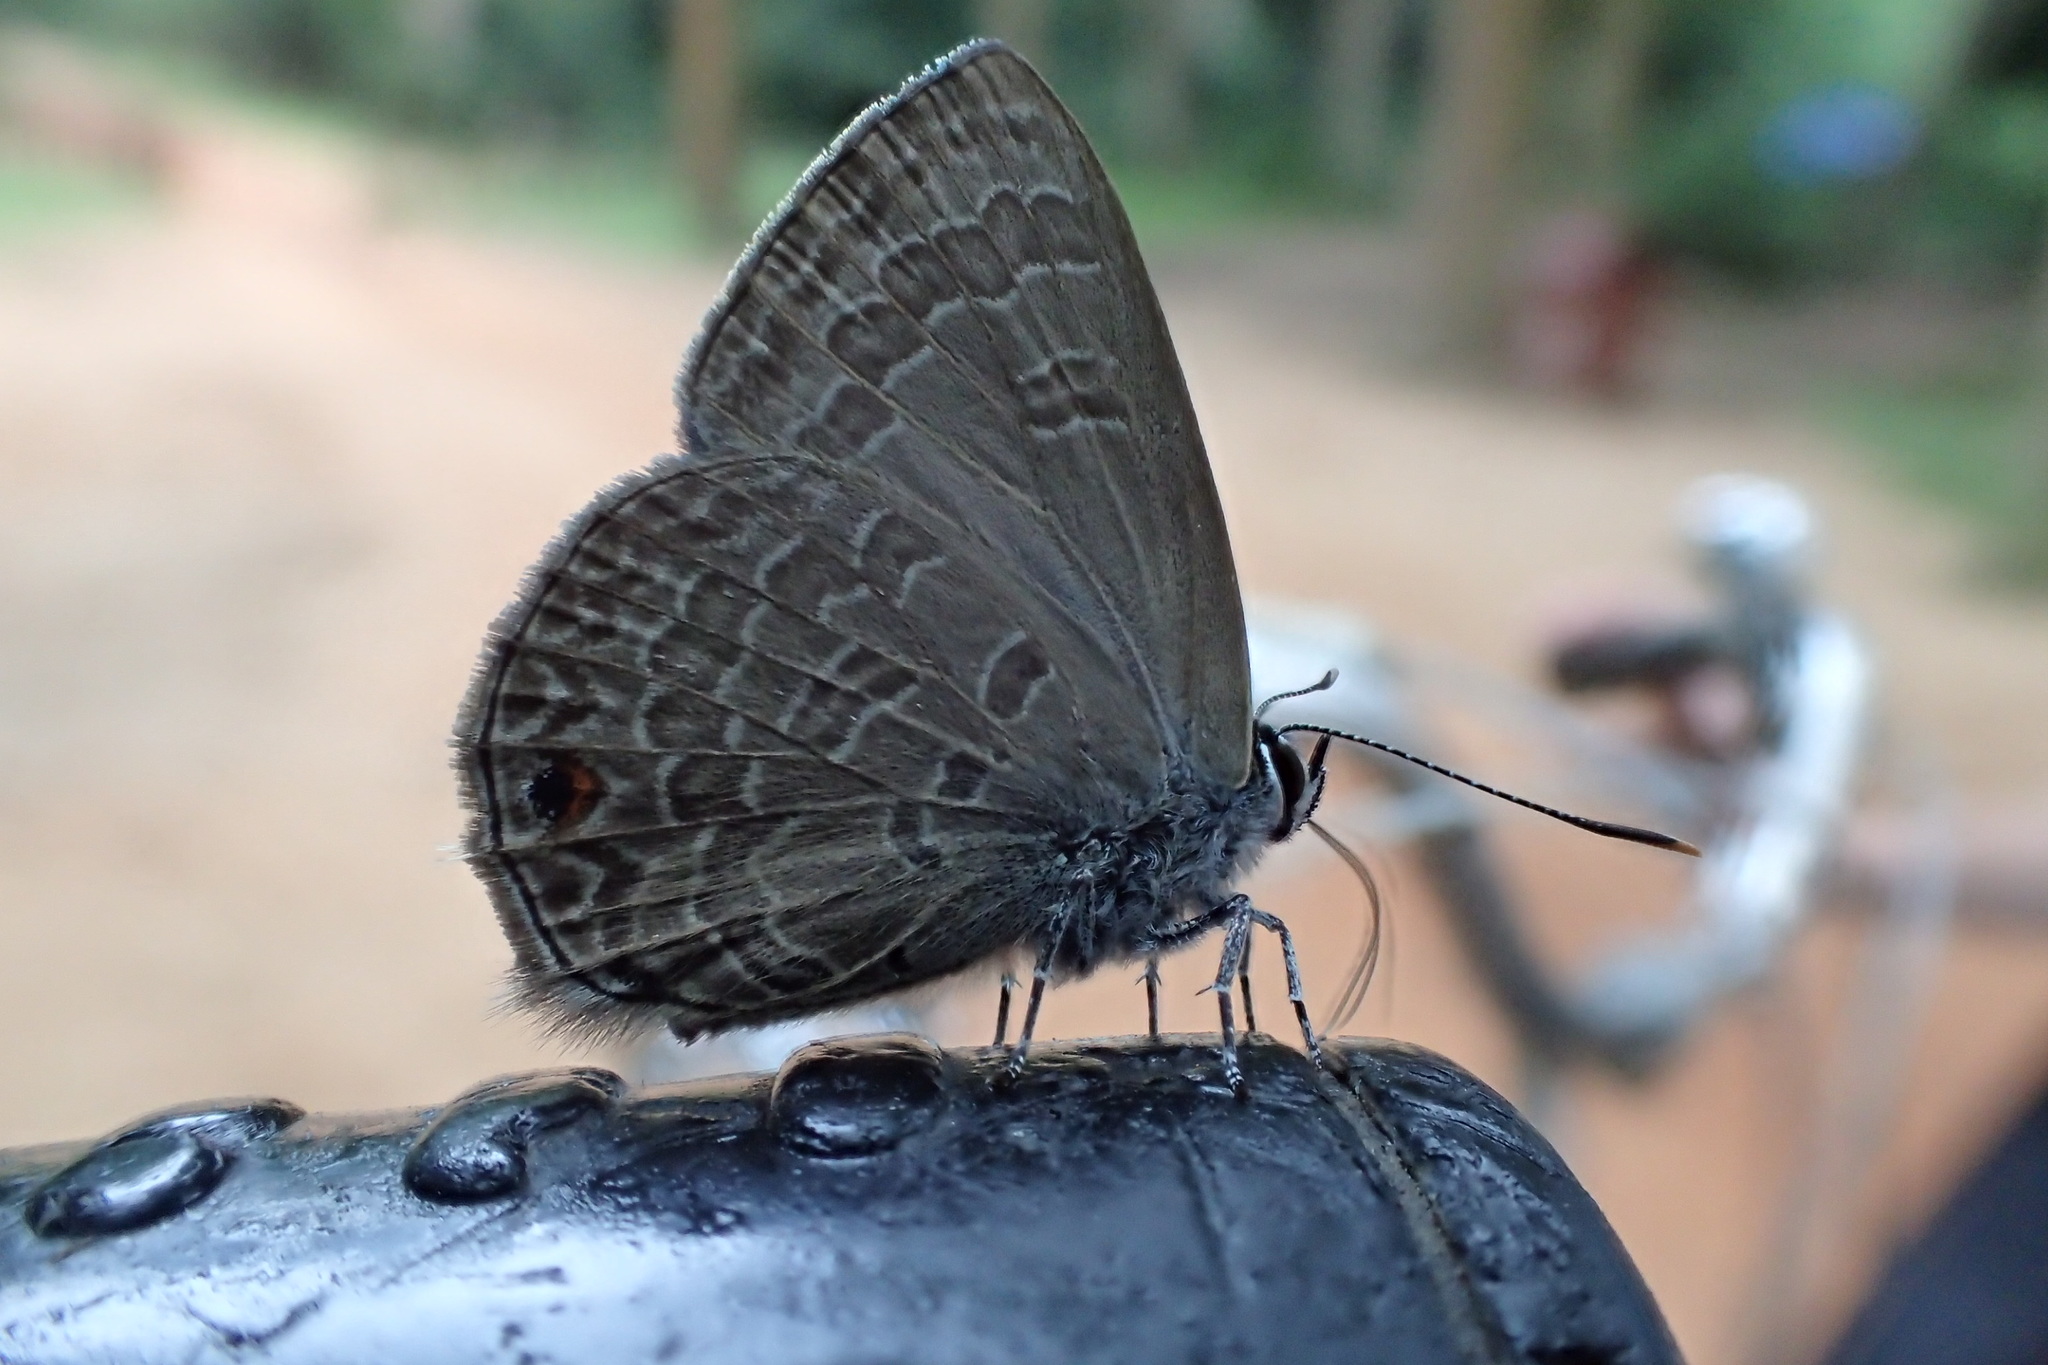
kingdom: Animalia
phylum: Arthropoda
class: Insecta
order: Lepidoptera
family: Lycaenidae
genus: Anthene
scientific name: Anthene emolus
